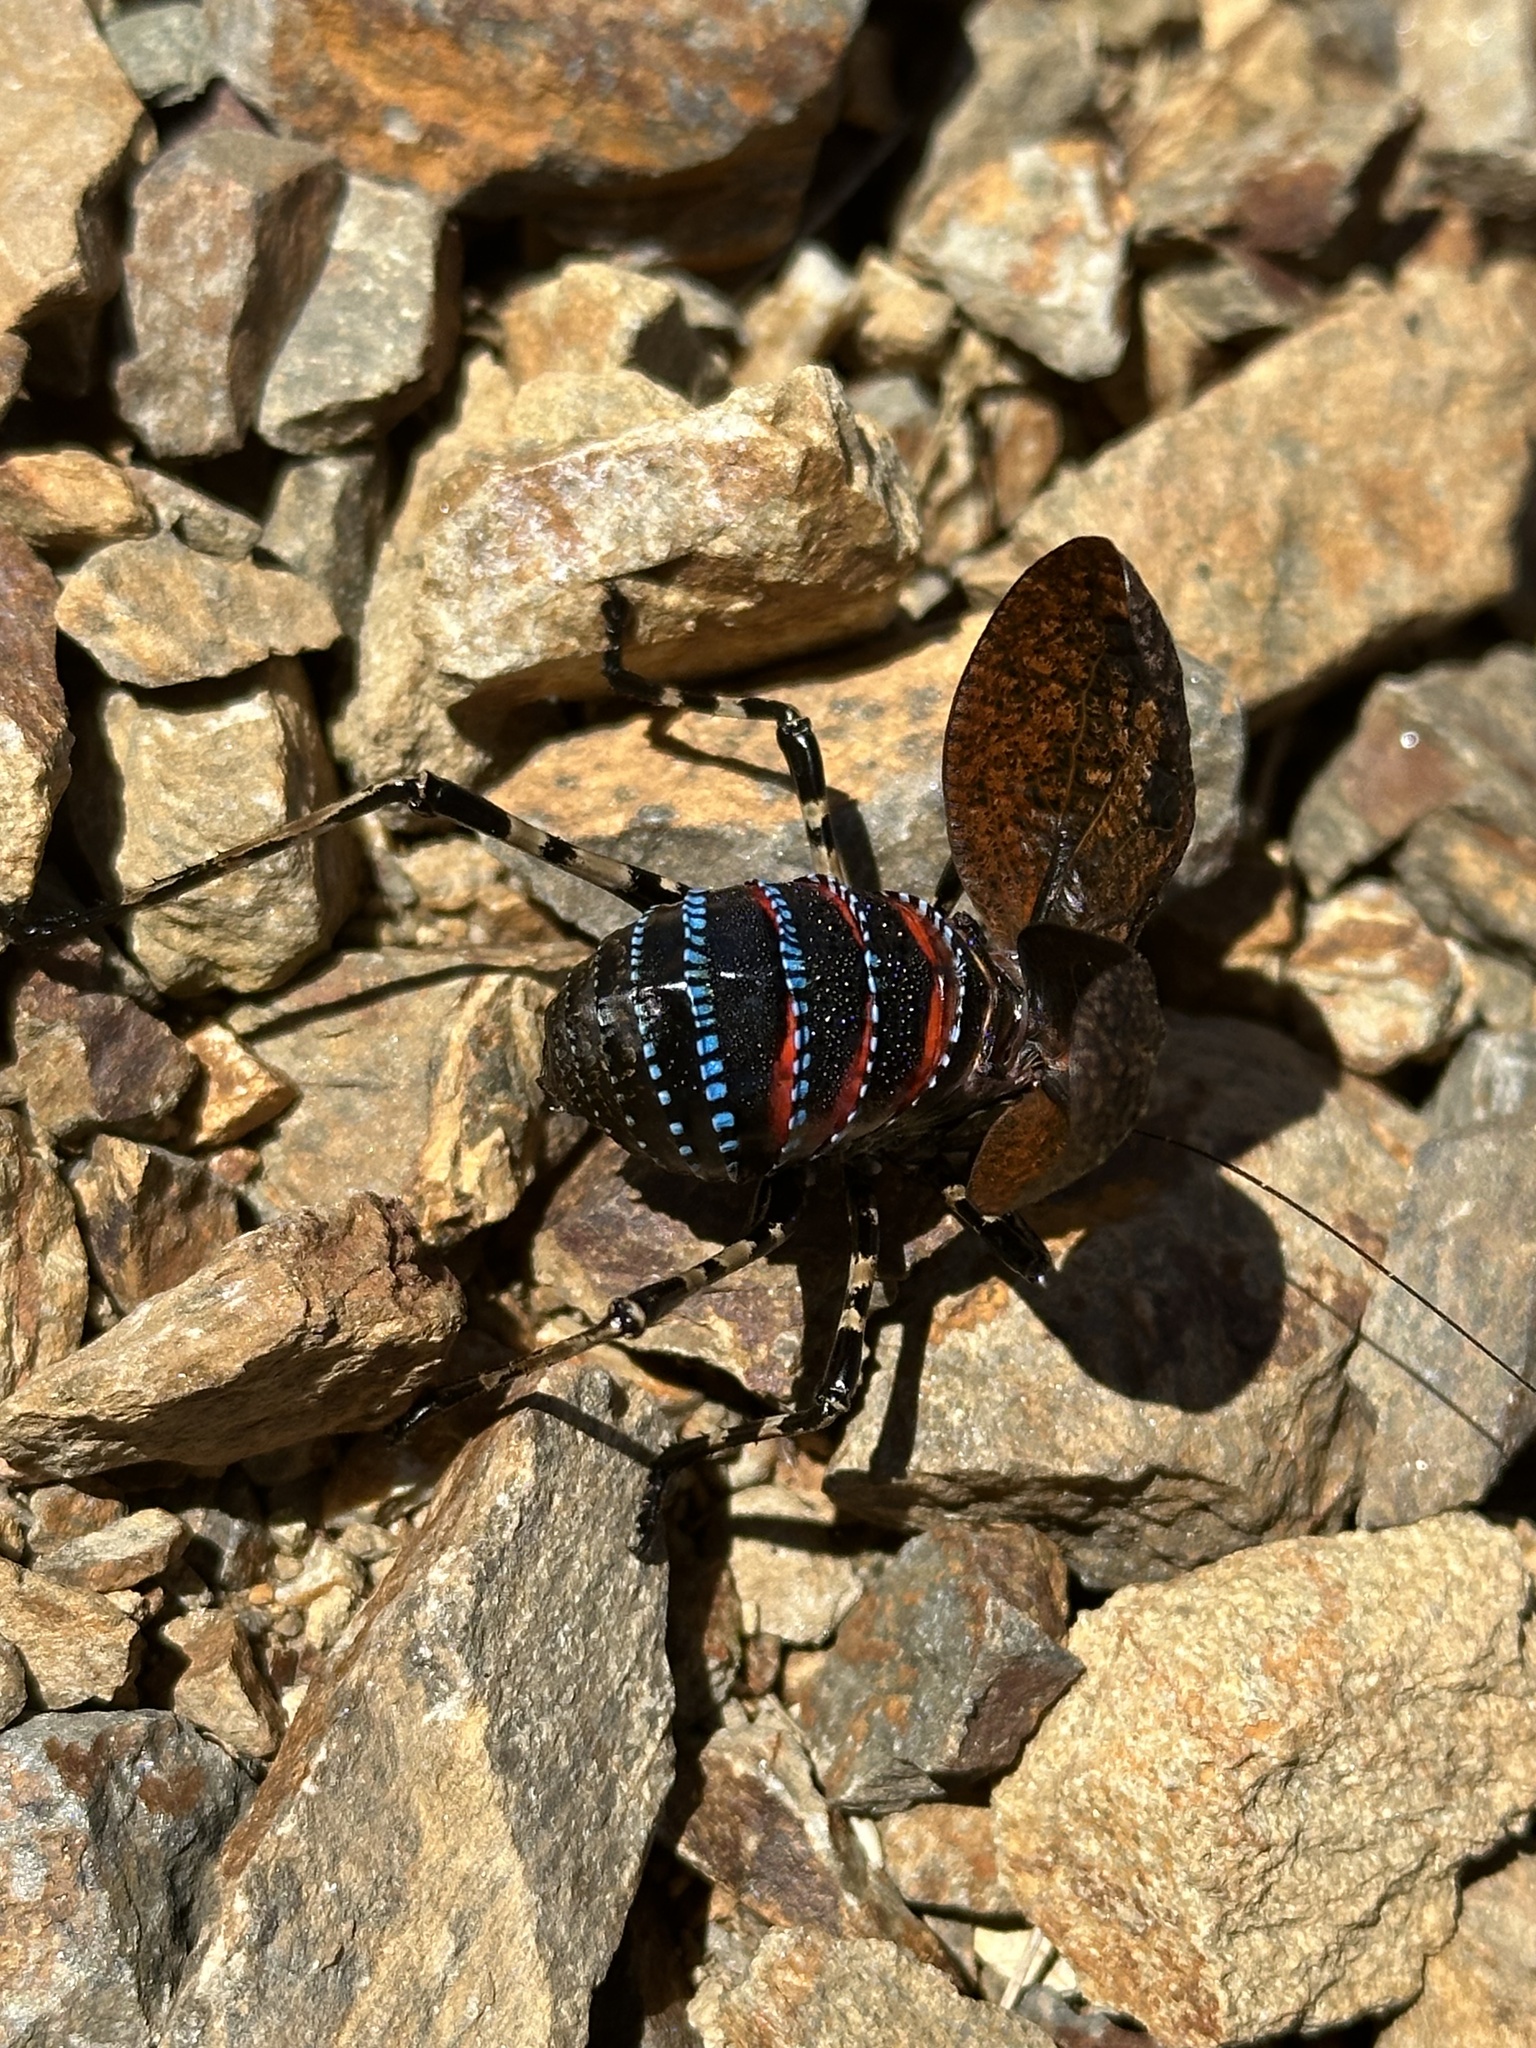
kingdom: Animalia
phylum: Arthropoda
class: Insecta
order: Orthoptera
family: Tettigoniidae
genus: Acripeza
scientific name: Acripeza reticulata
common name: Mountain katydid
